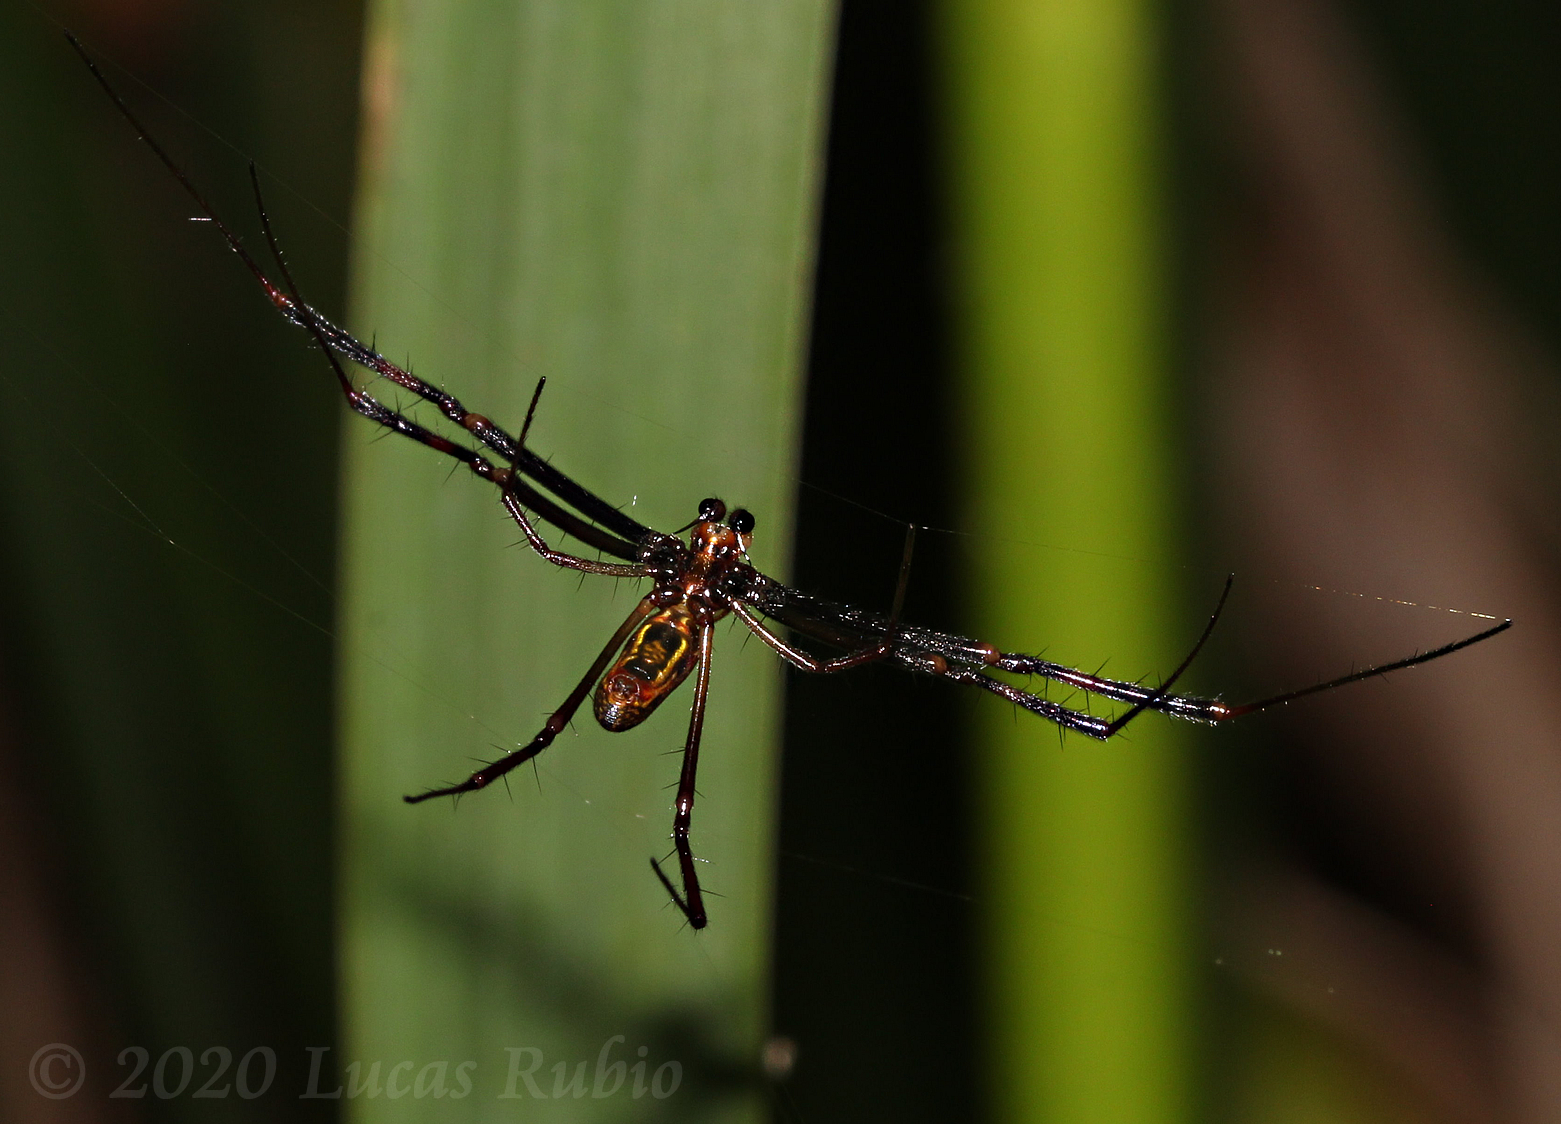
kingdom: Animalia
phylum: Arthropoda
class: Arachnida
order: Araneae
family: Araneidae
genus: Trichonephila
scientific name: Trichonephila clavipes
